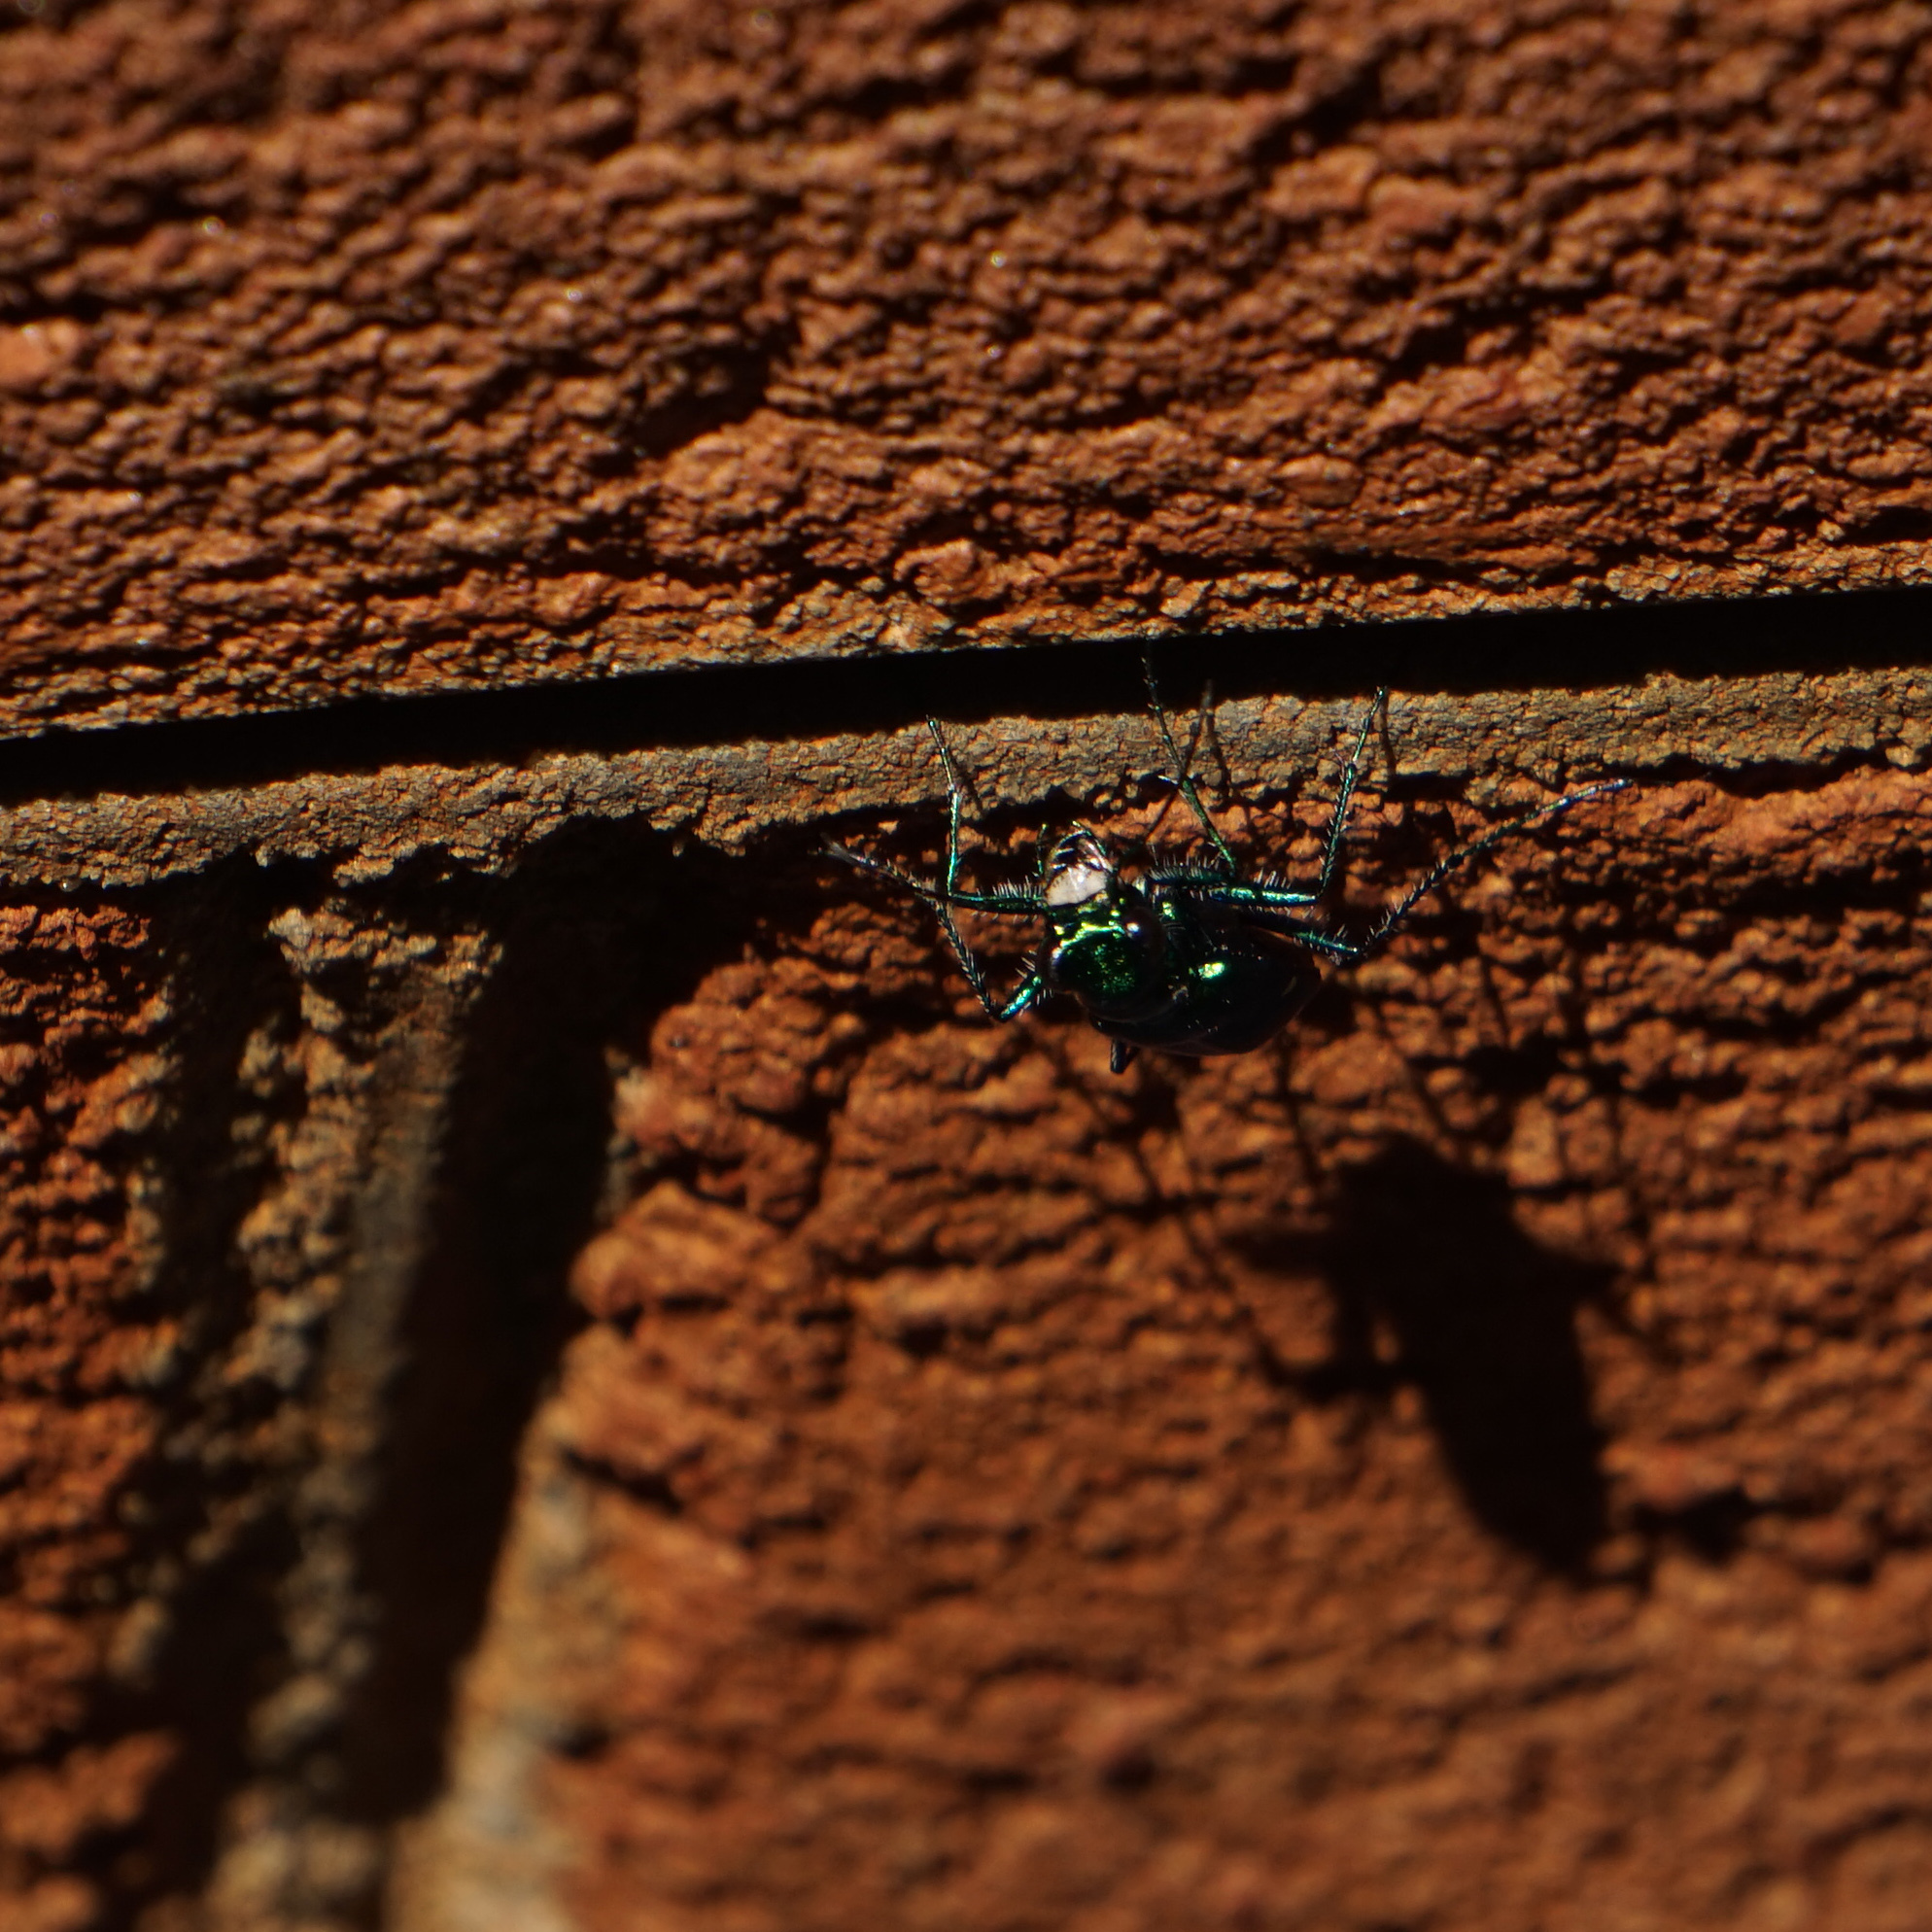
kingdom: Animalia
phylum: Arthropoda
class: Insecta
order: Coleoptera
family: Carabidae
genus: Cicindela
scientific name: Cicindela sexguttata
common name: Six-spotted tiger beetle
